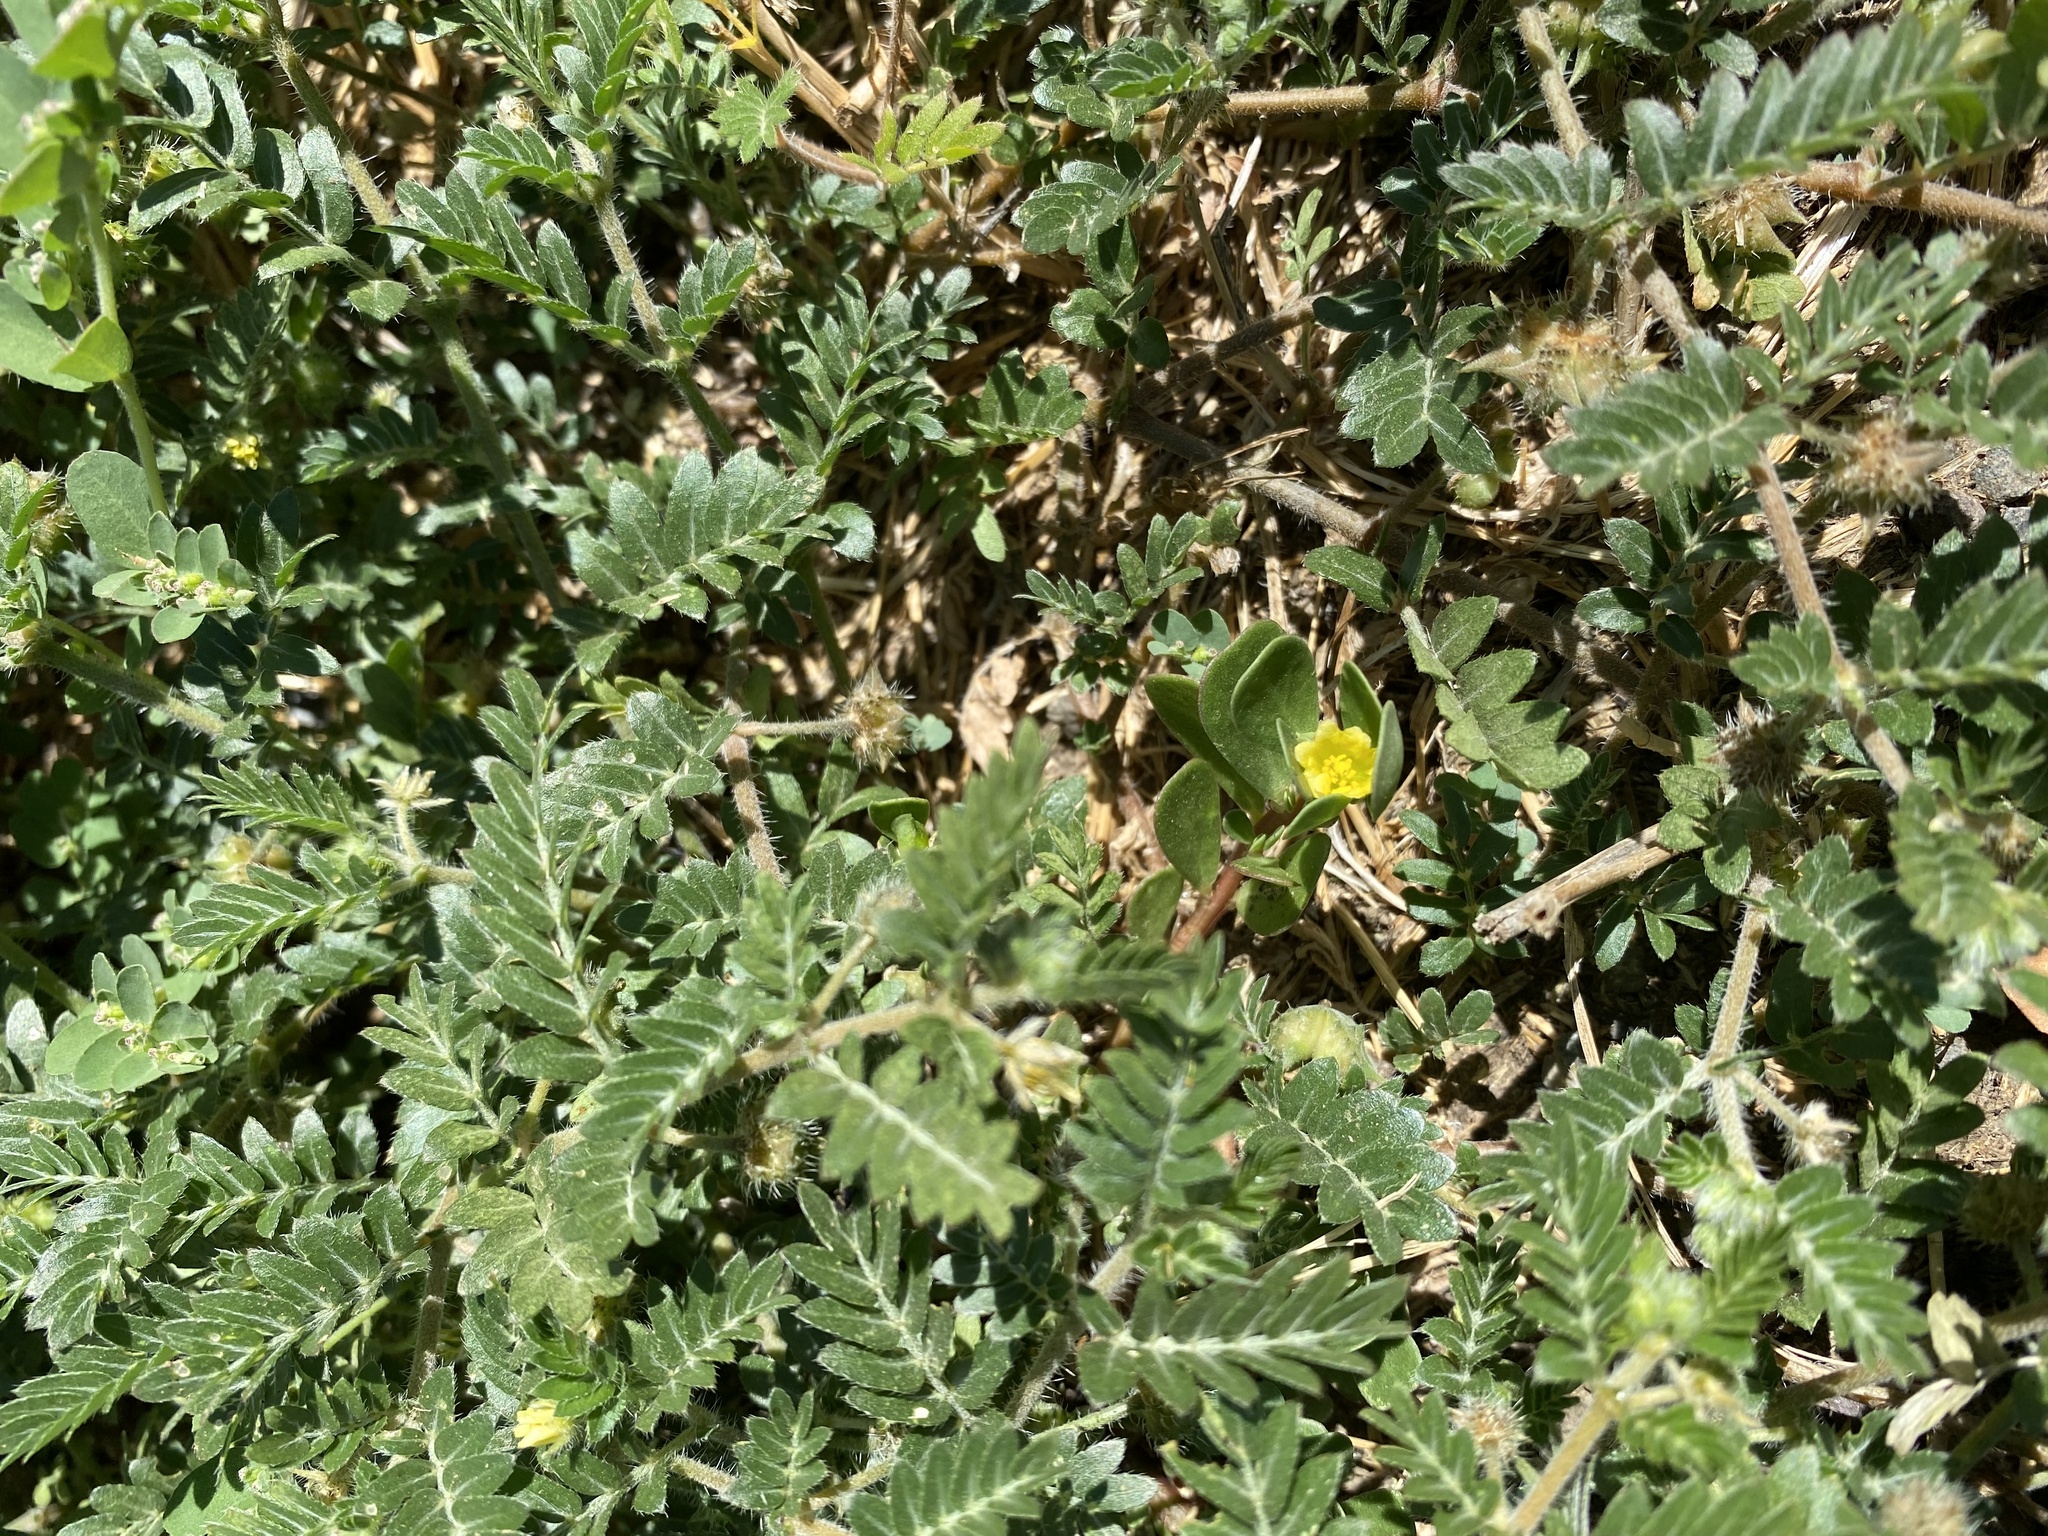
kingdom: Plantae
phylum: Tracheophyta
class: Magnoliopsida
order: Zygophyllales
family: Zygophyllaceae
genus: Tribulus
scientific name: Tribulus terrestris
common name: Puncturevine
